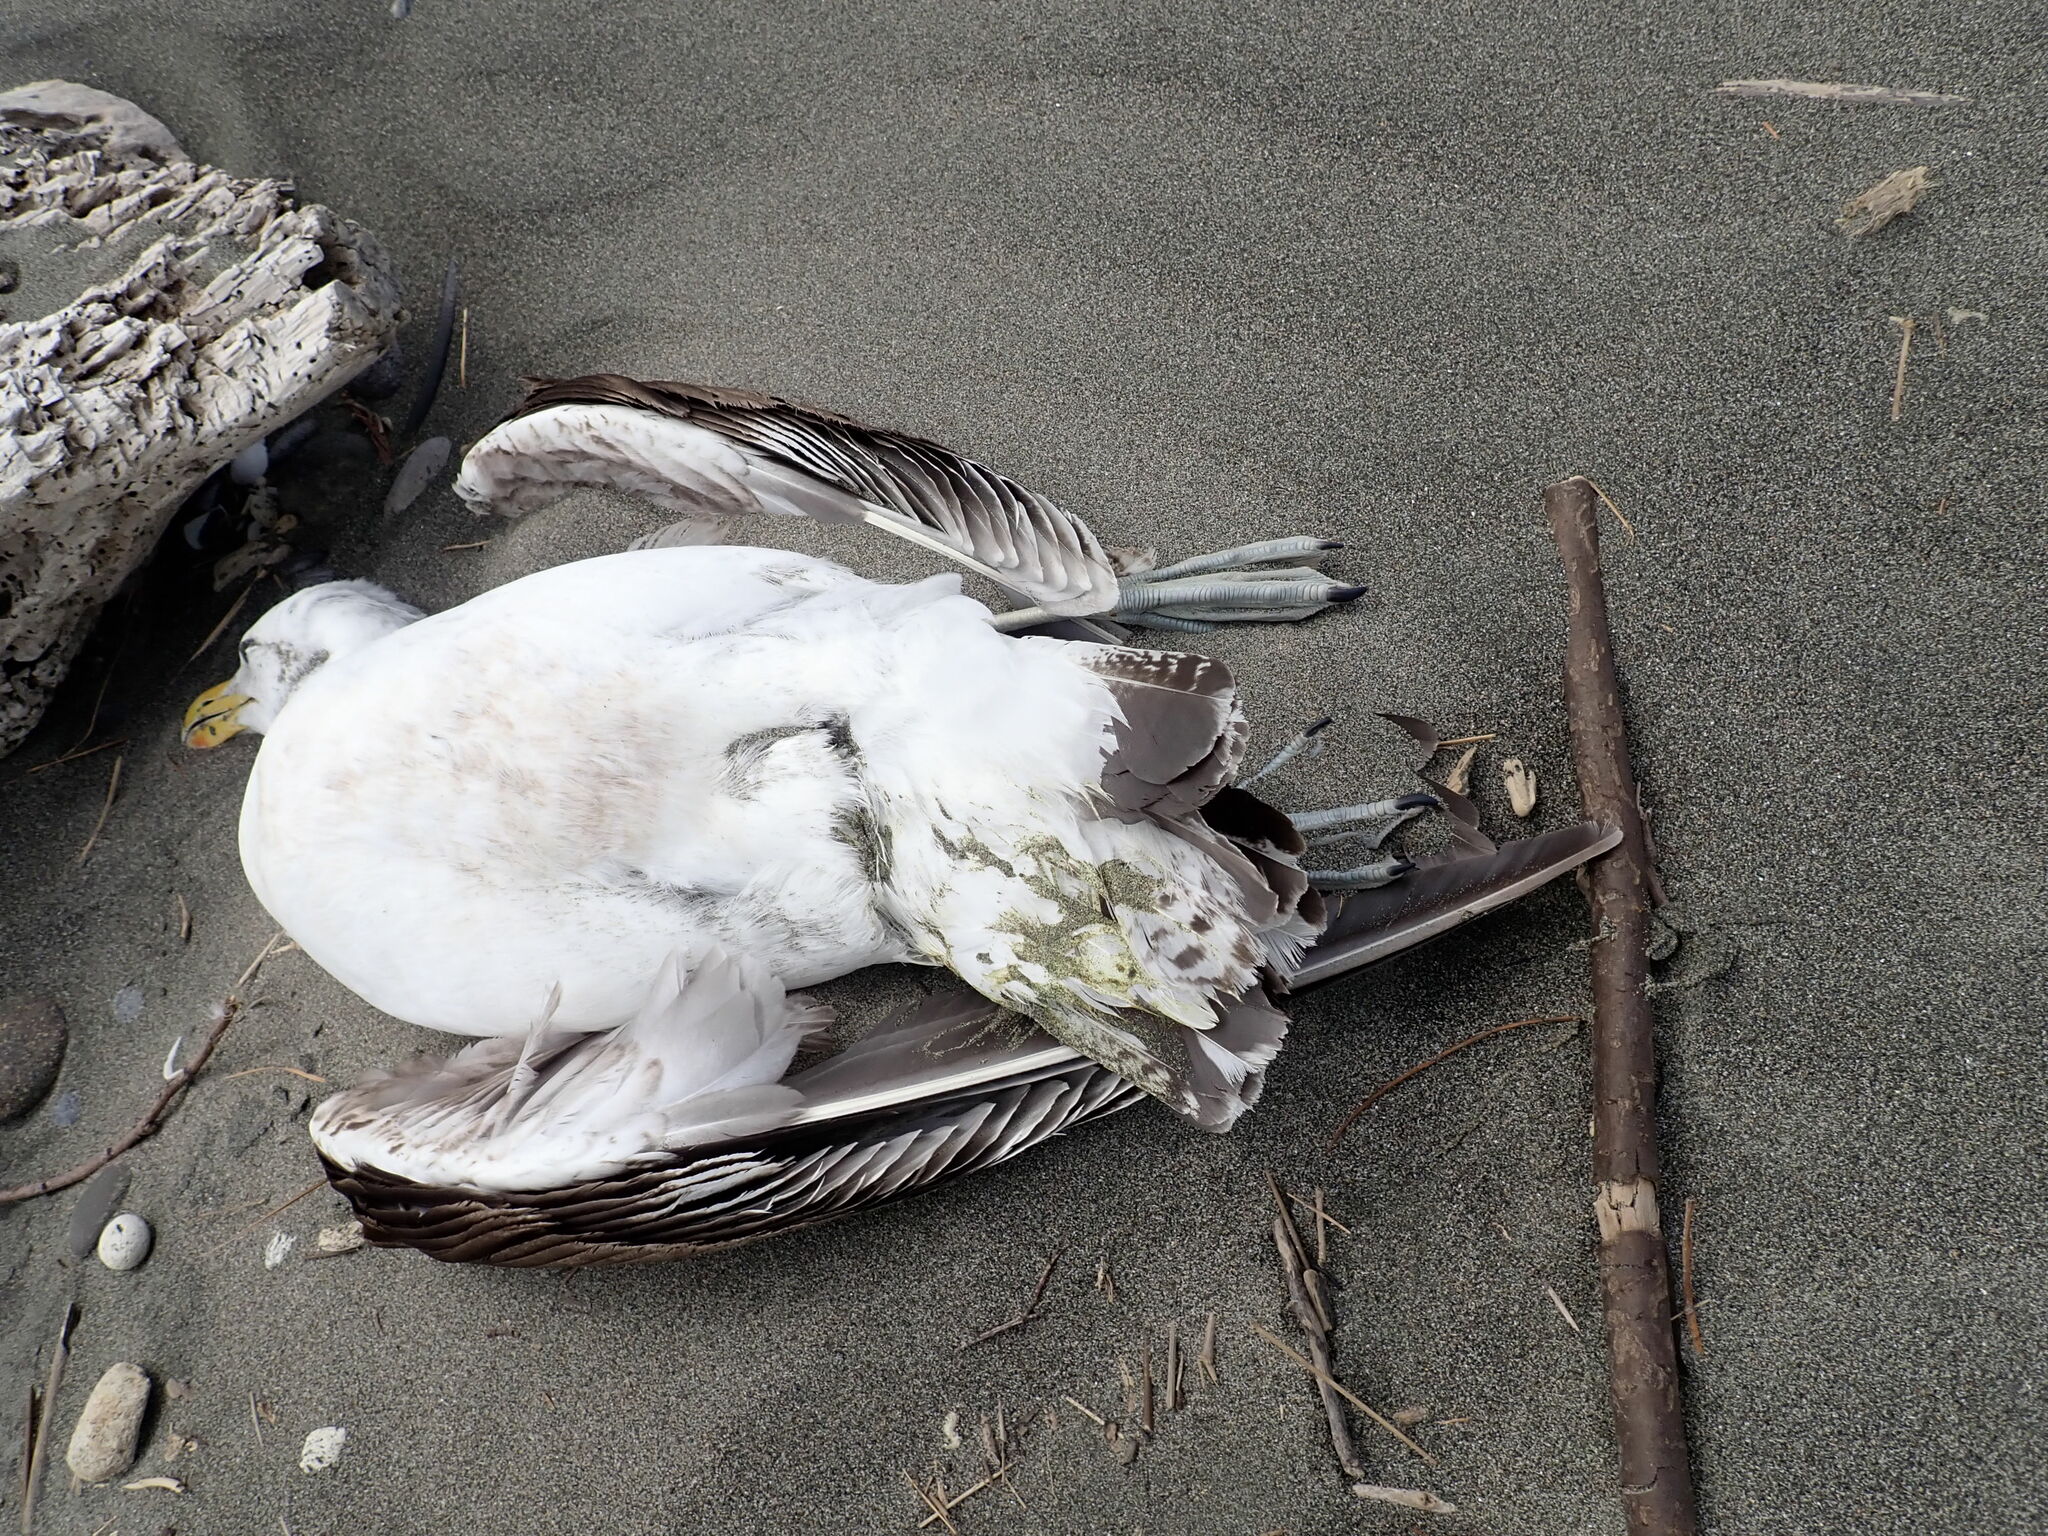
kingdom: Animalia
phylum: Chordata
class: Aves
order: Charadriiformes
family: Laridae
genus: Larus
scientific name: Larus dominicanus
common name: Kelp gull
